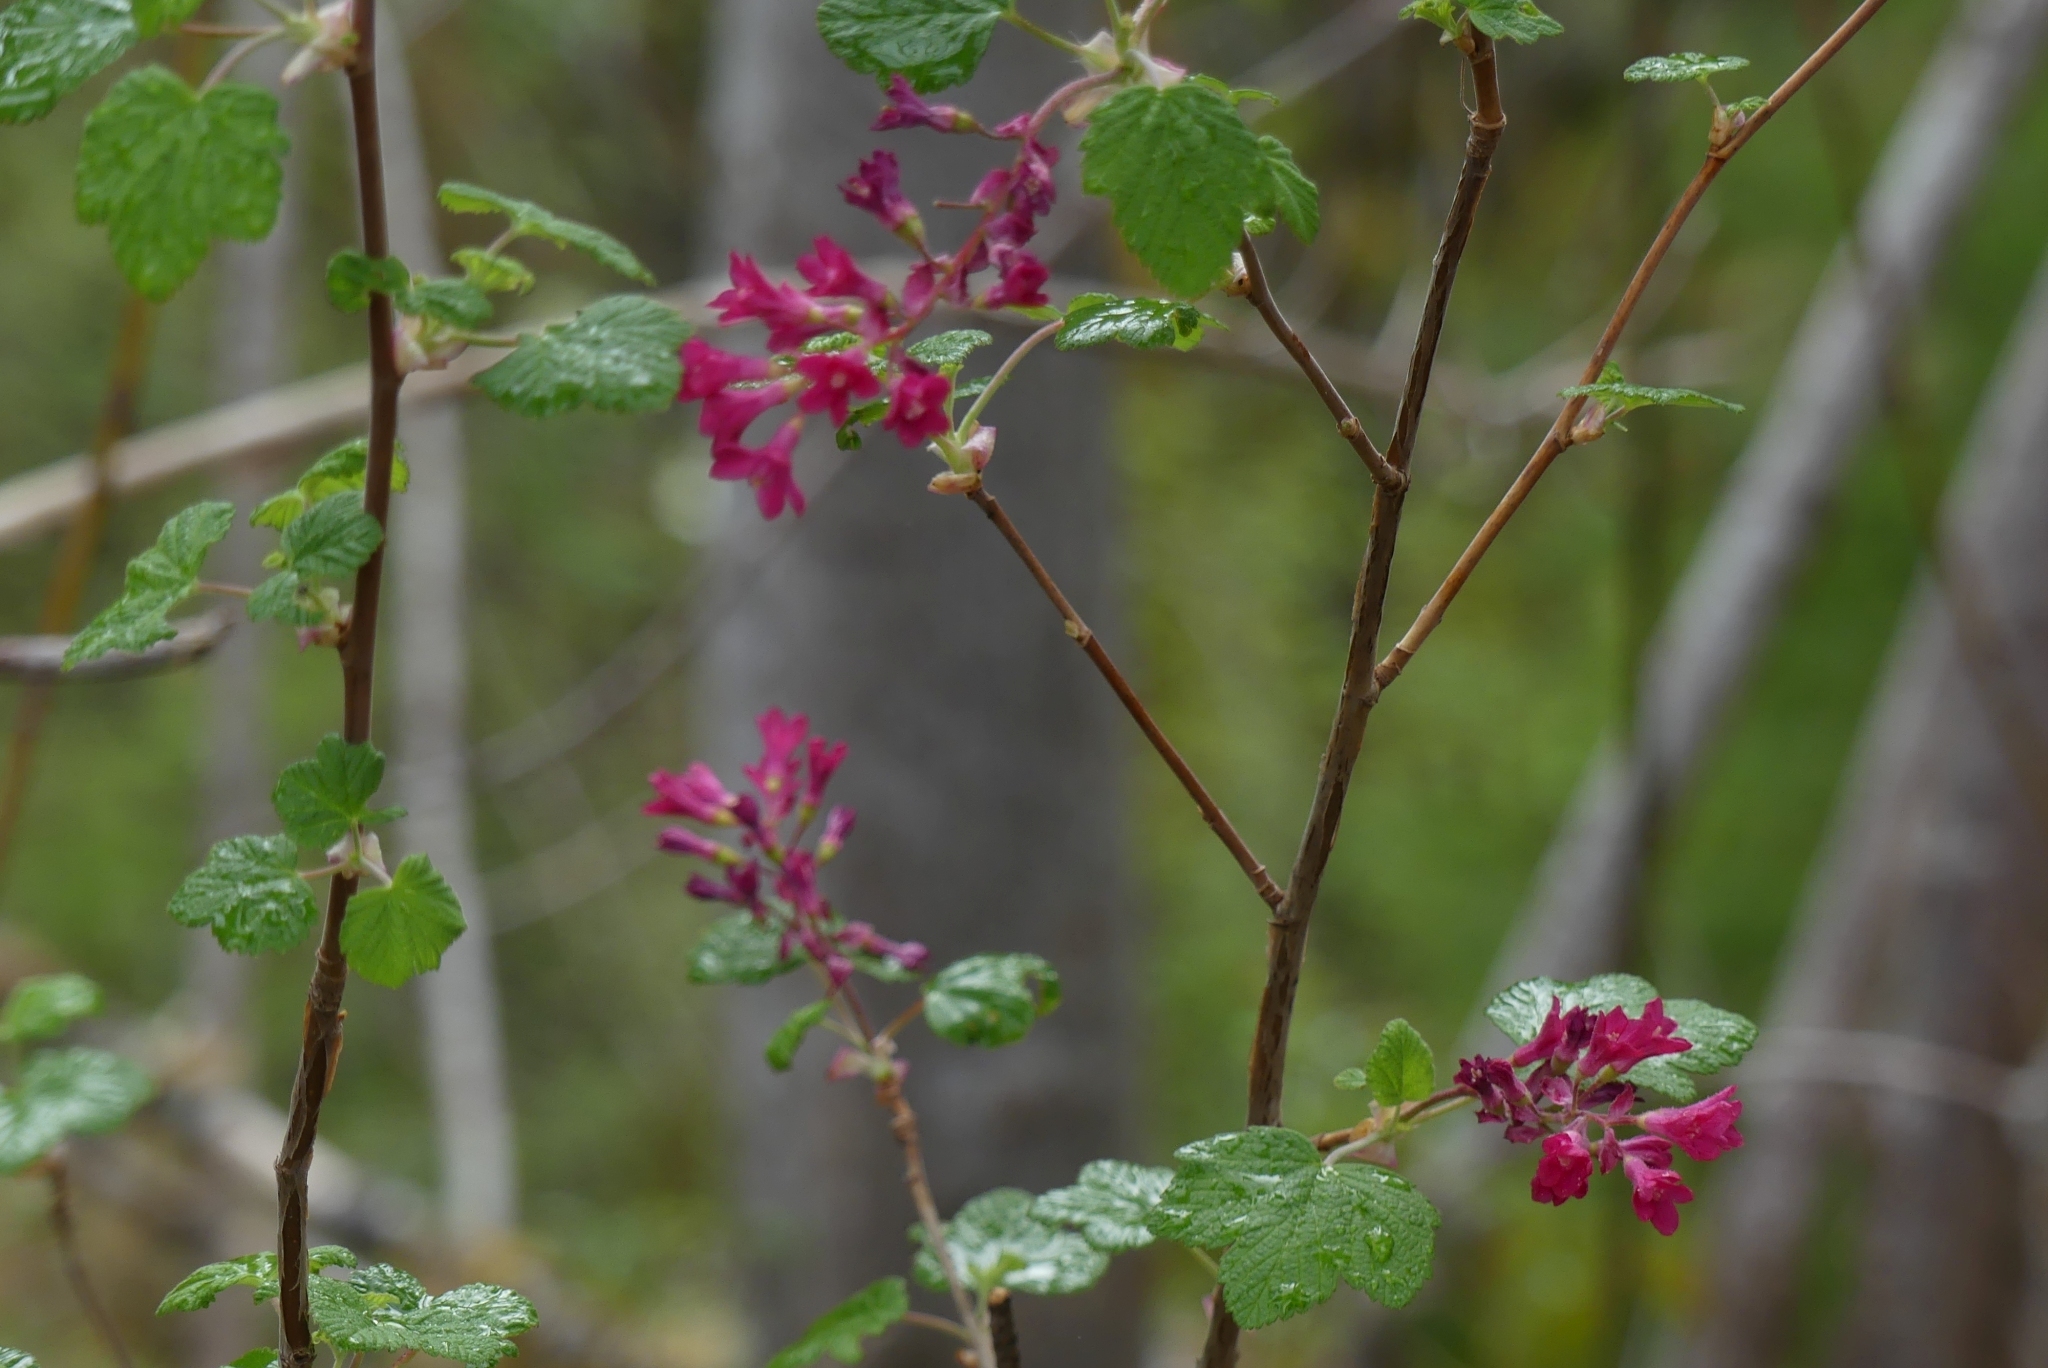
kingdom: Plantae
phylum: Tracheophyta
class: Magnoliopsida
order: Saxifragales
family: Grossulariaceae
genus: Ribes
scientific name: Ribes sanguineum
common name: Flowering currant
